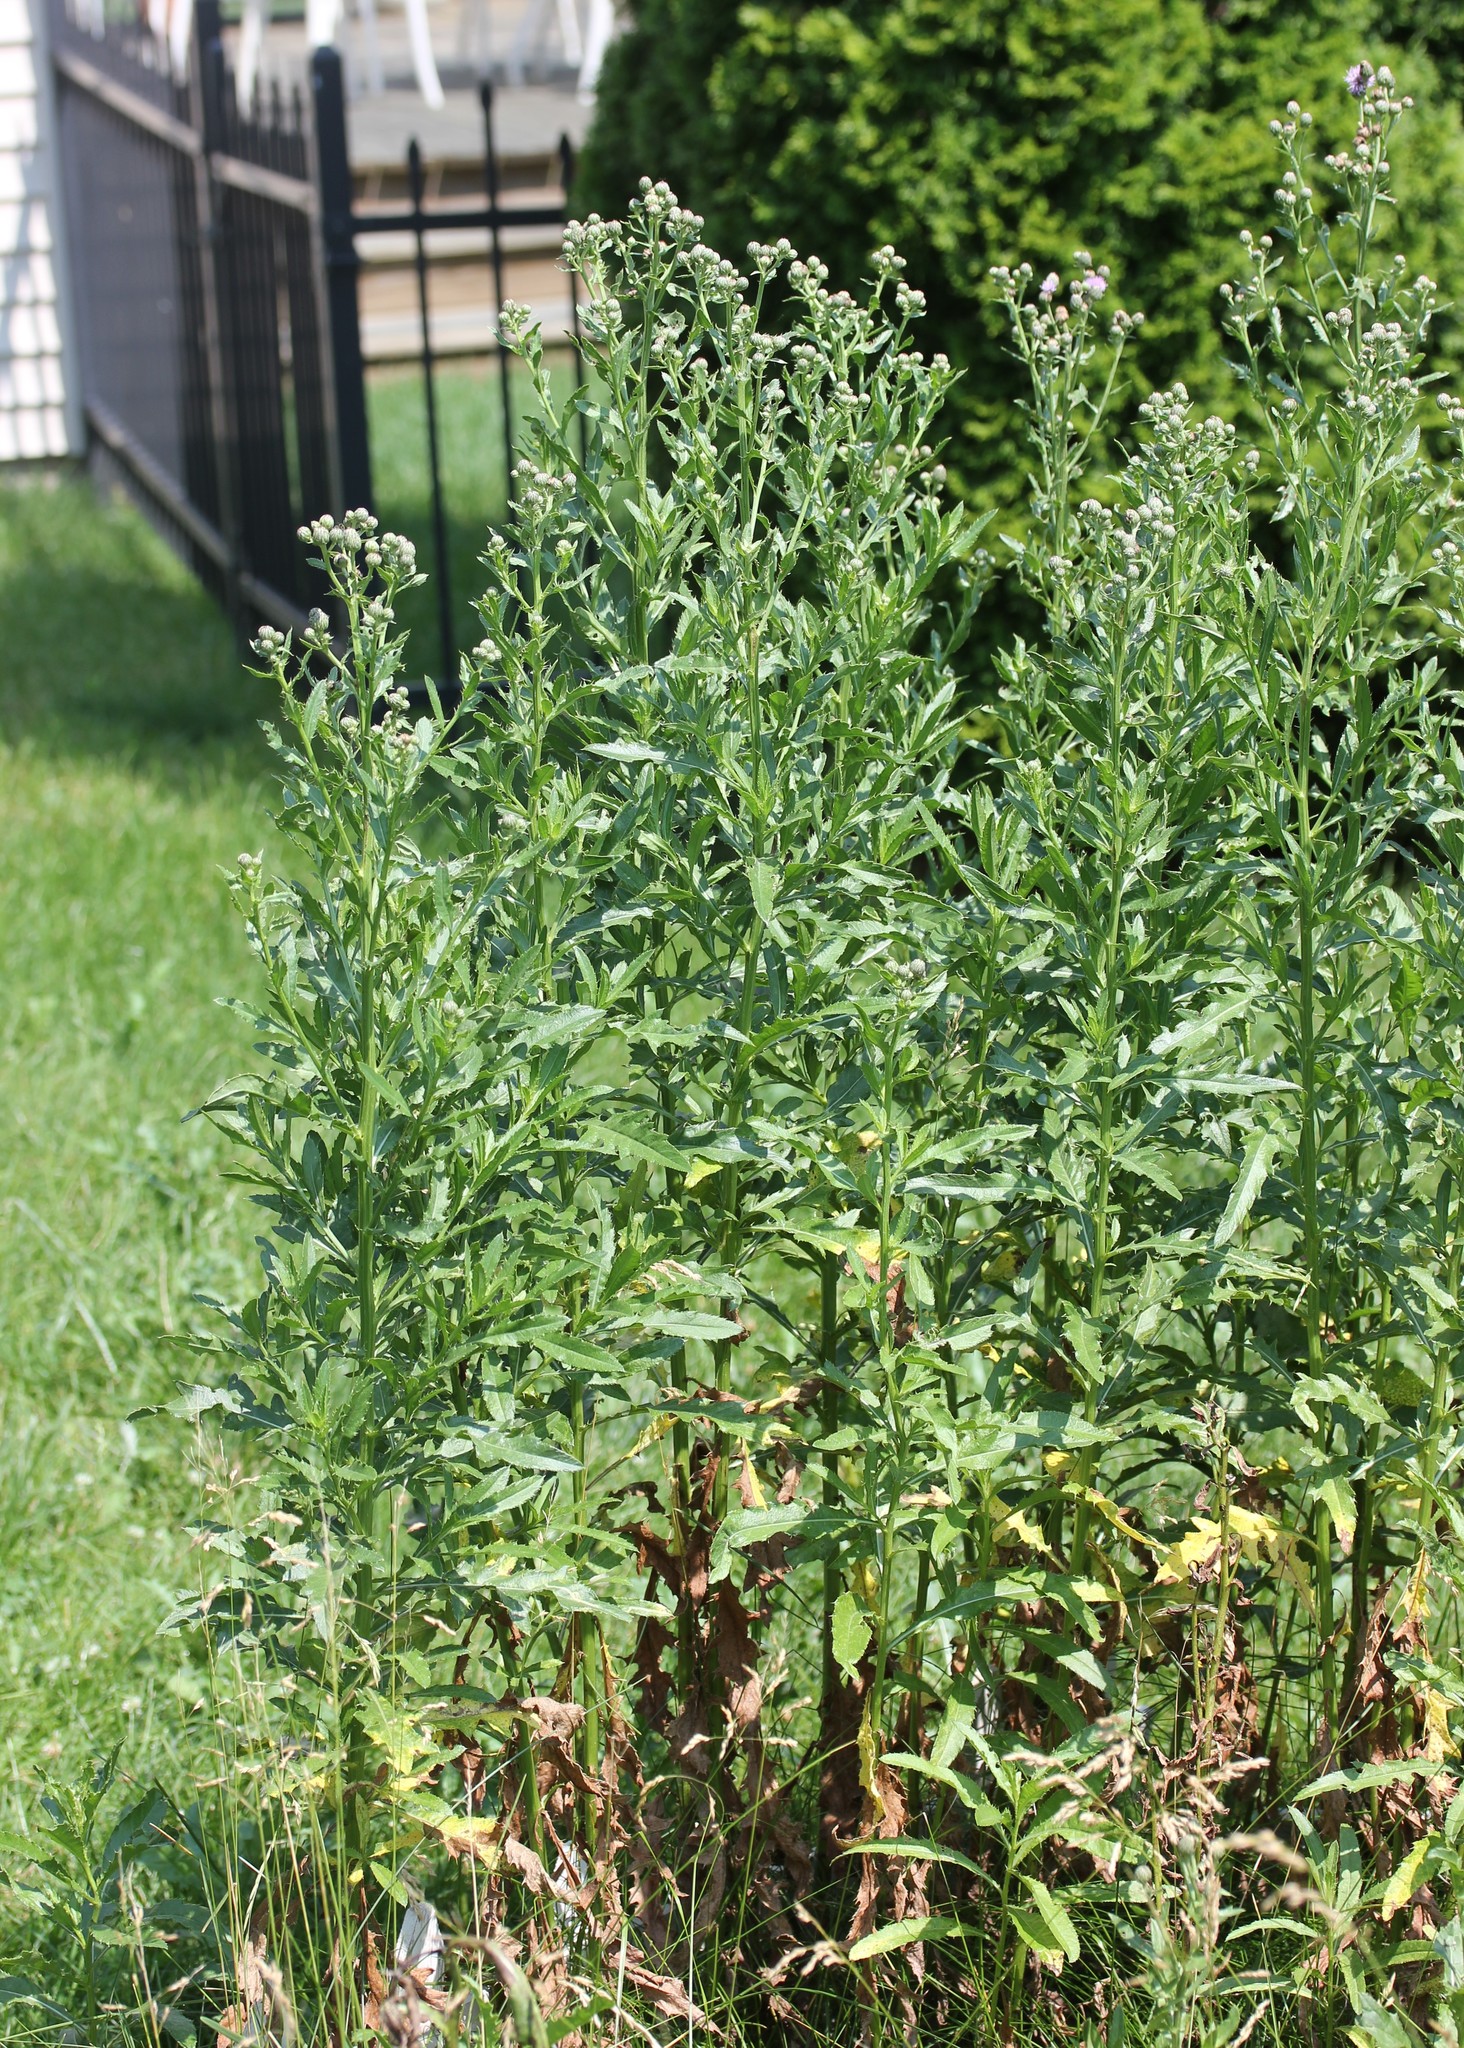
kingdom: Plantae
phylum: Tracheophyta
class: Magnoliopsida
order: Asterales
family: Asteraceae
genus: Cirsium
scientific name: Cirsium arvense
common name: Creeping thistle
